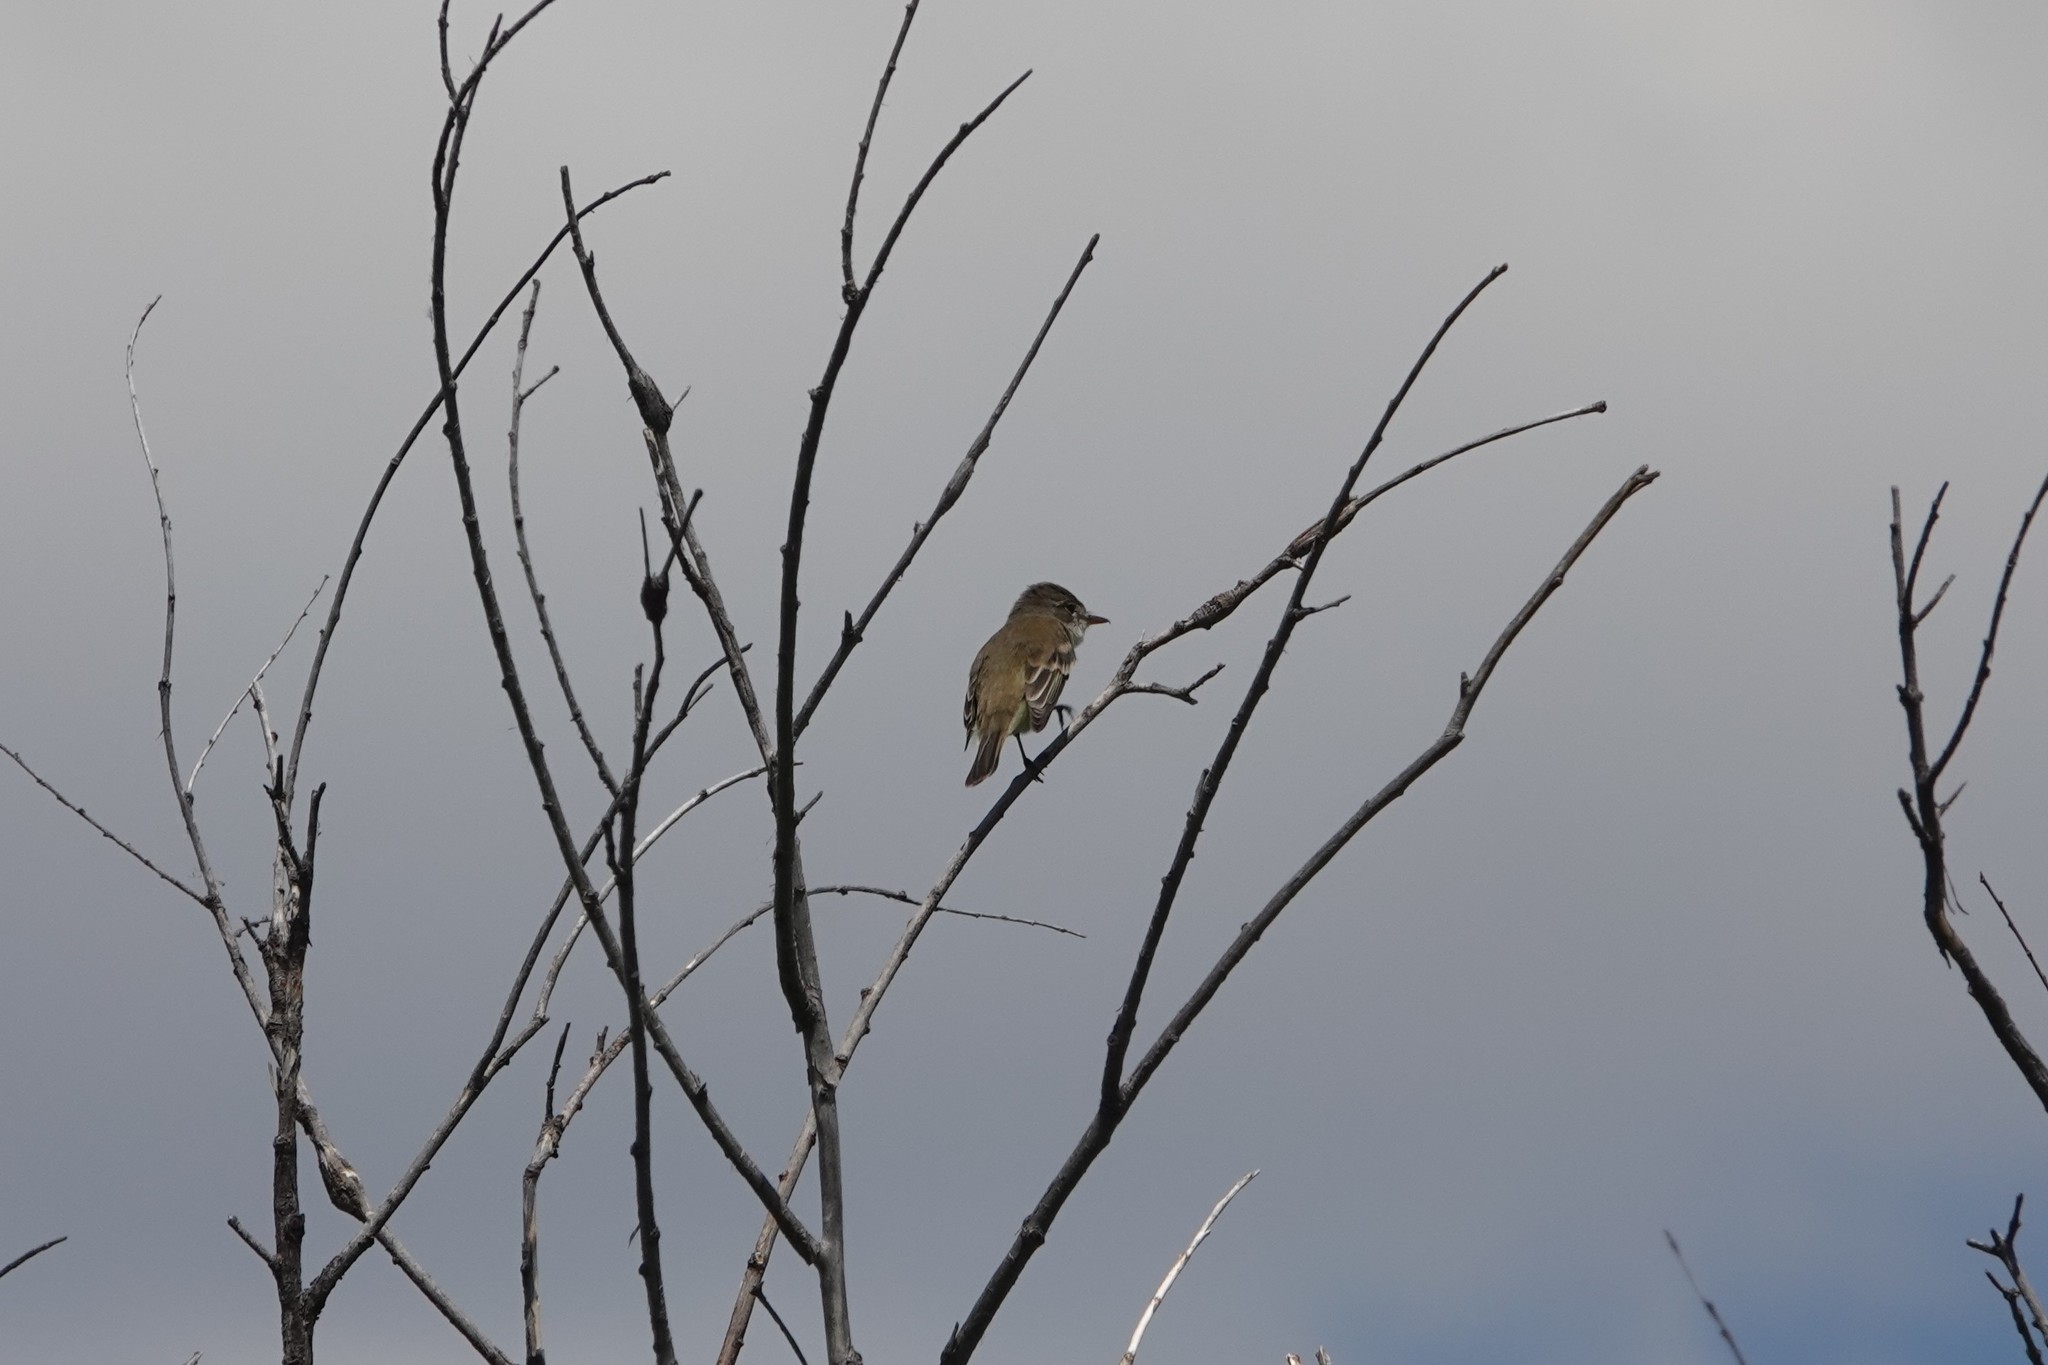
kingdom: Animalia
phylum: Chordata
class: Aves
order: Passeriformes
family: Tyrannidae
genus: Empidonax
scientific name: Empidonax traillii
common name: Willow flycatcher
